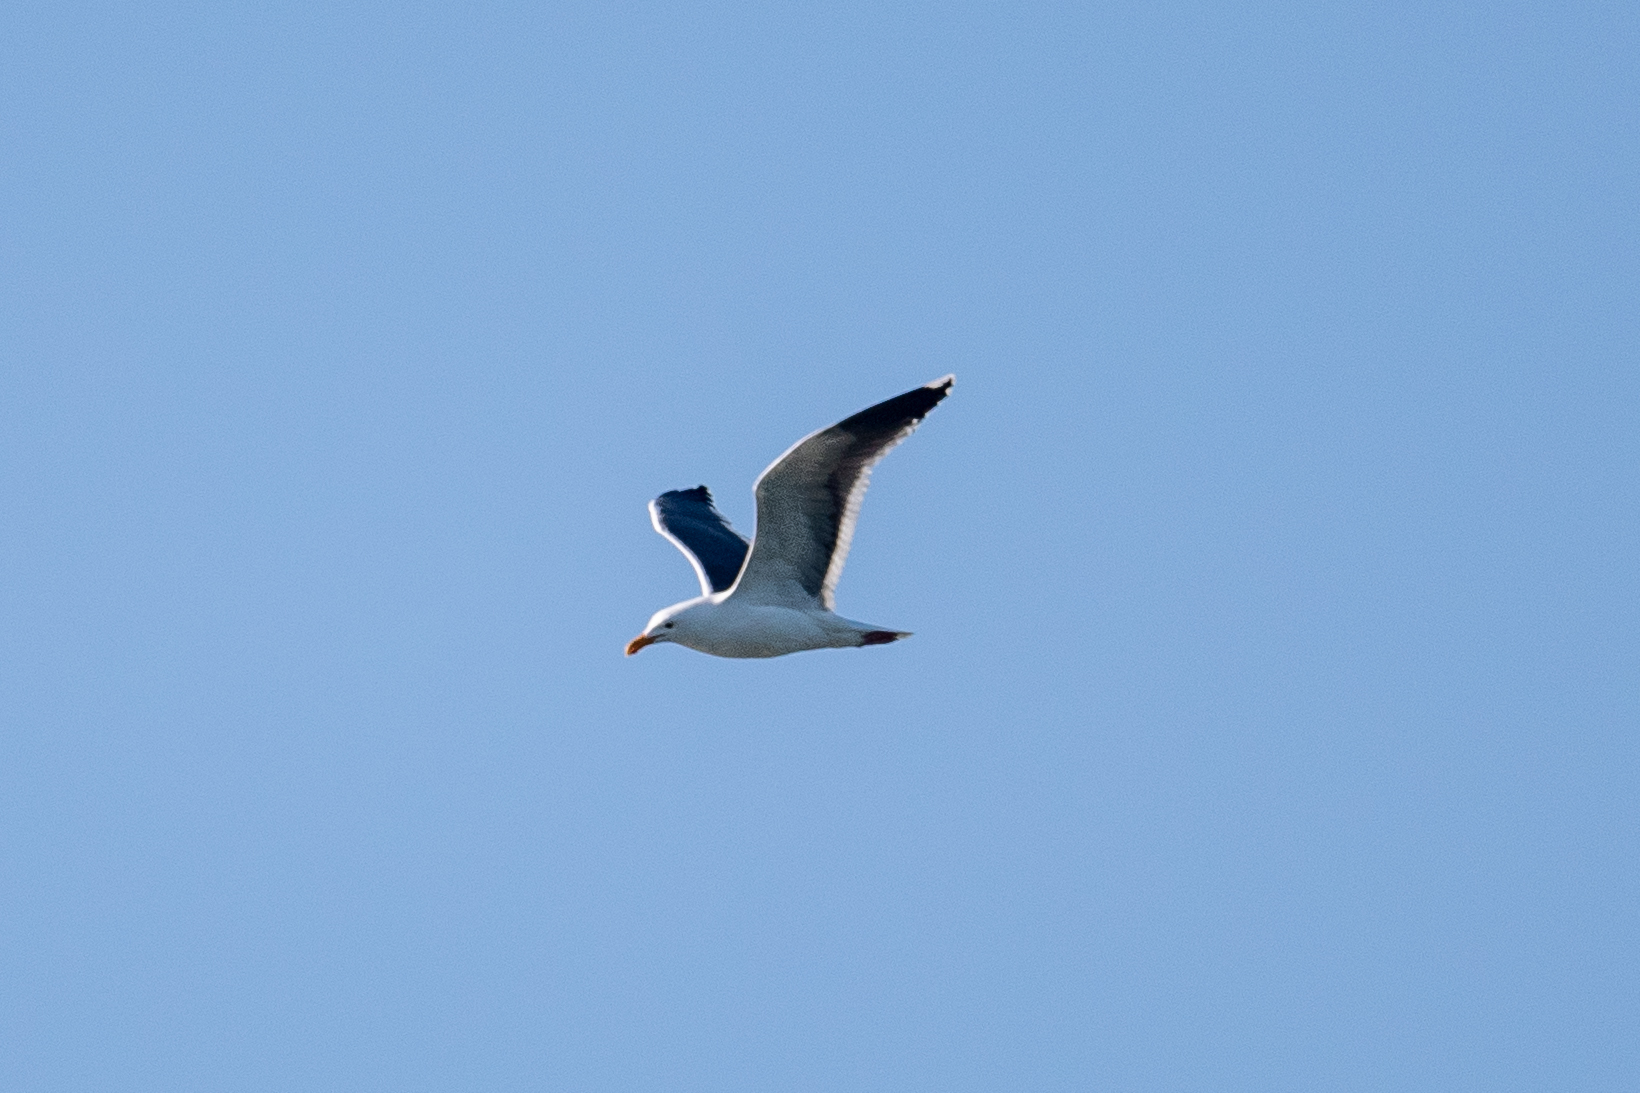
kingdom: Animalia
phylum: Chordata
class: Aves
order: Charadriiformes
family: Laridae
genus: Larus
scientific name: Larus occidentalis
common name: Western gull
